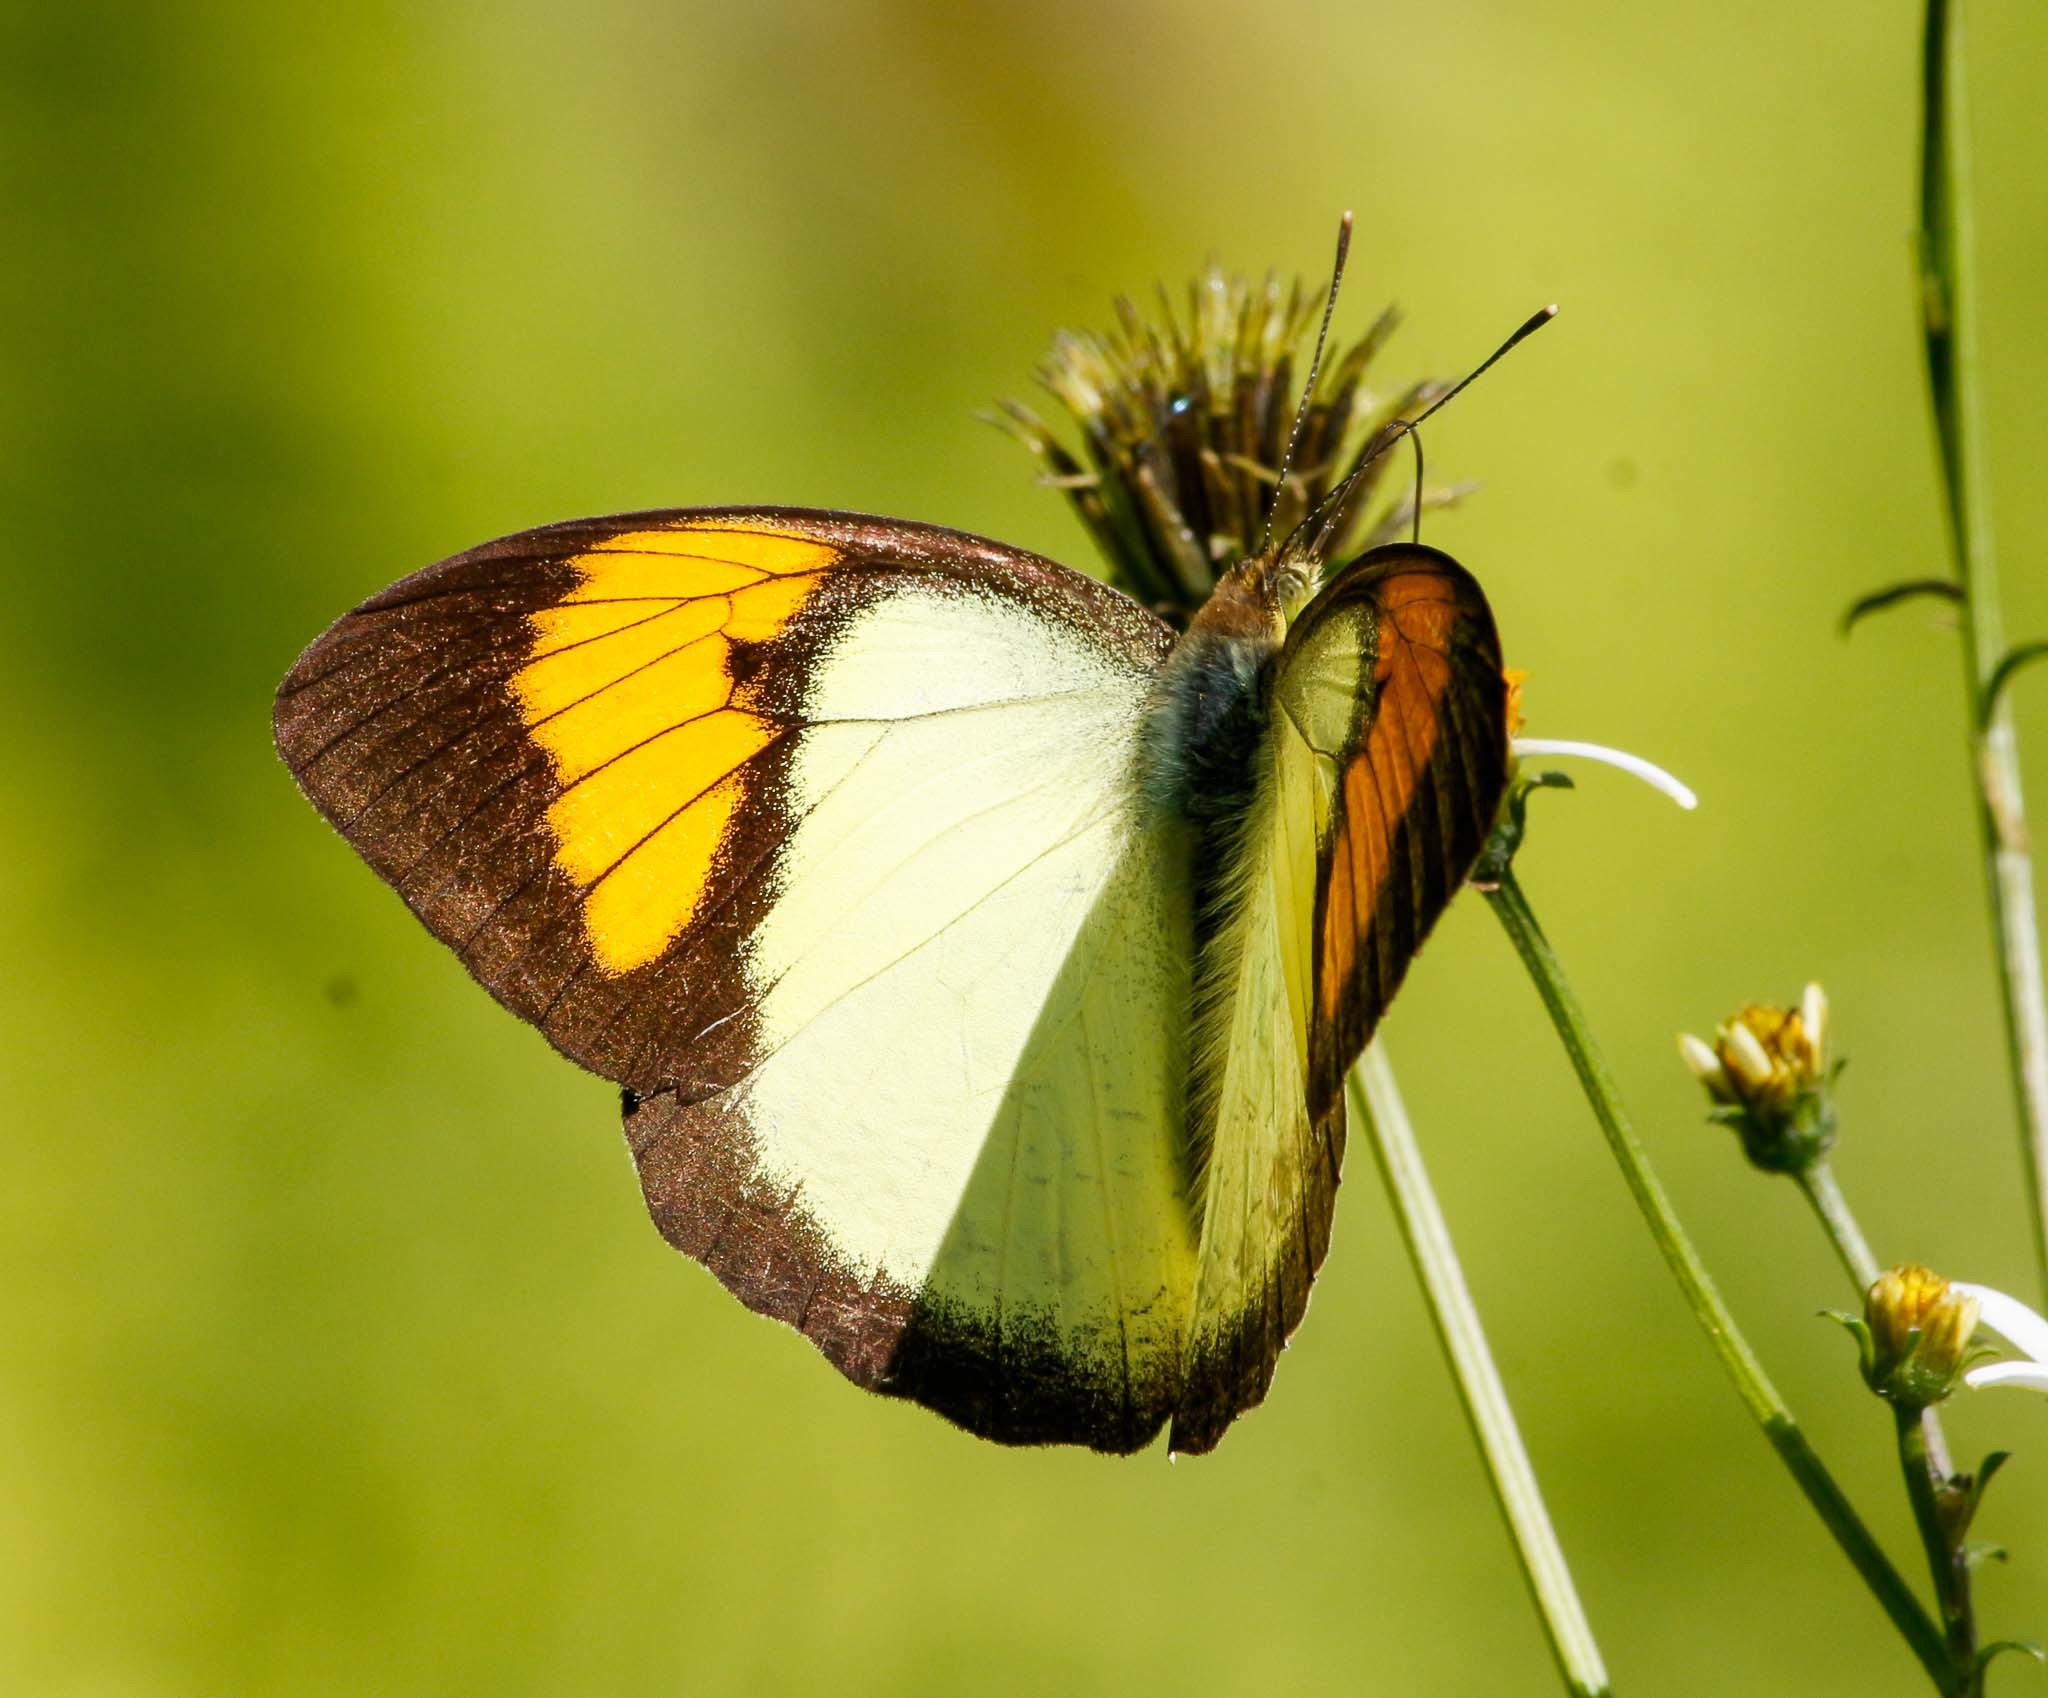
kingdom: Animalia
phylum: Arthropoda
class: Insecta
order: Lepidoptera
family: Pieridae
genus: Ixias
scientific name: Ixias pyrene
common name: Yellow orange tip
